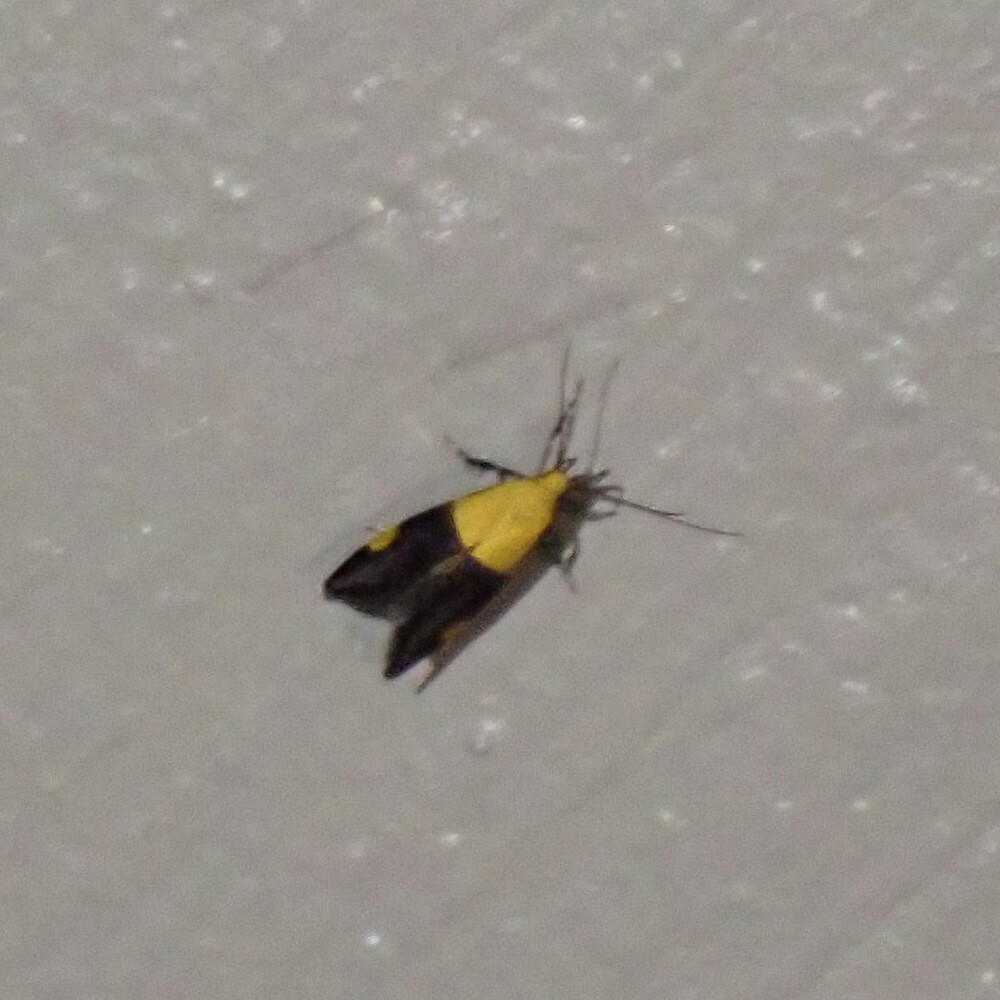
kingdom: Animalia
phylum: Arthropoda
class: Insecta
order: Lepidoptera
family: Oecophoridae
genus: Oecophora
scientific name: Oecophora bractella
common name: Gold-base tubic
